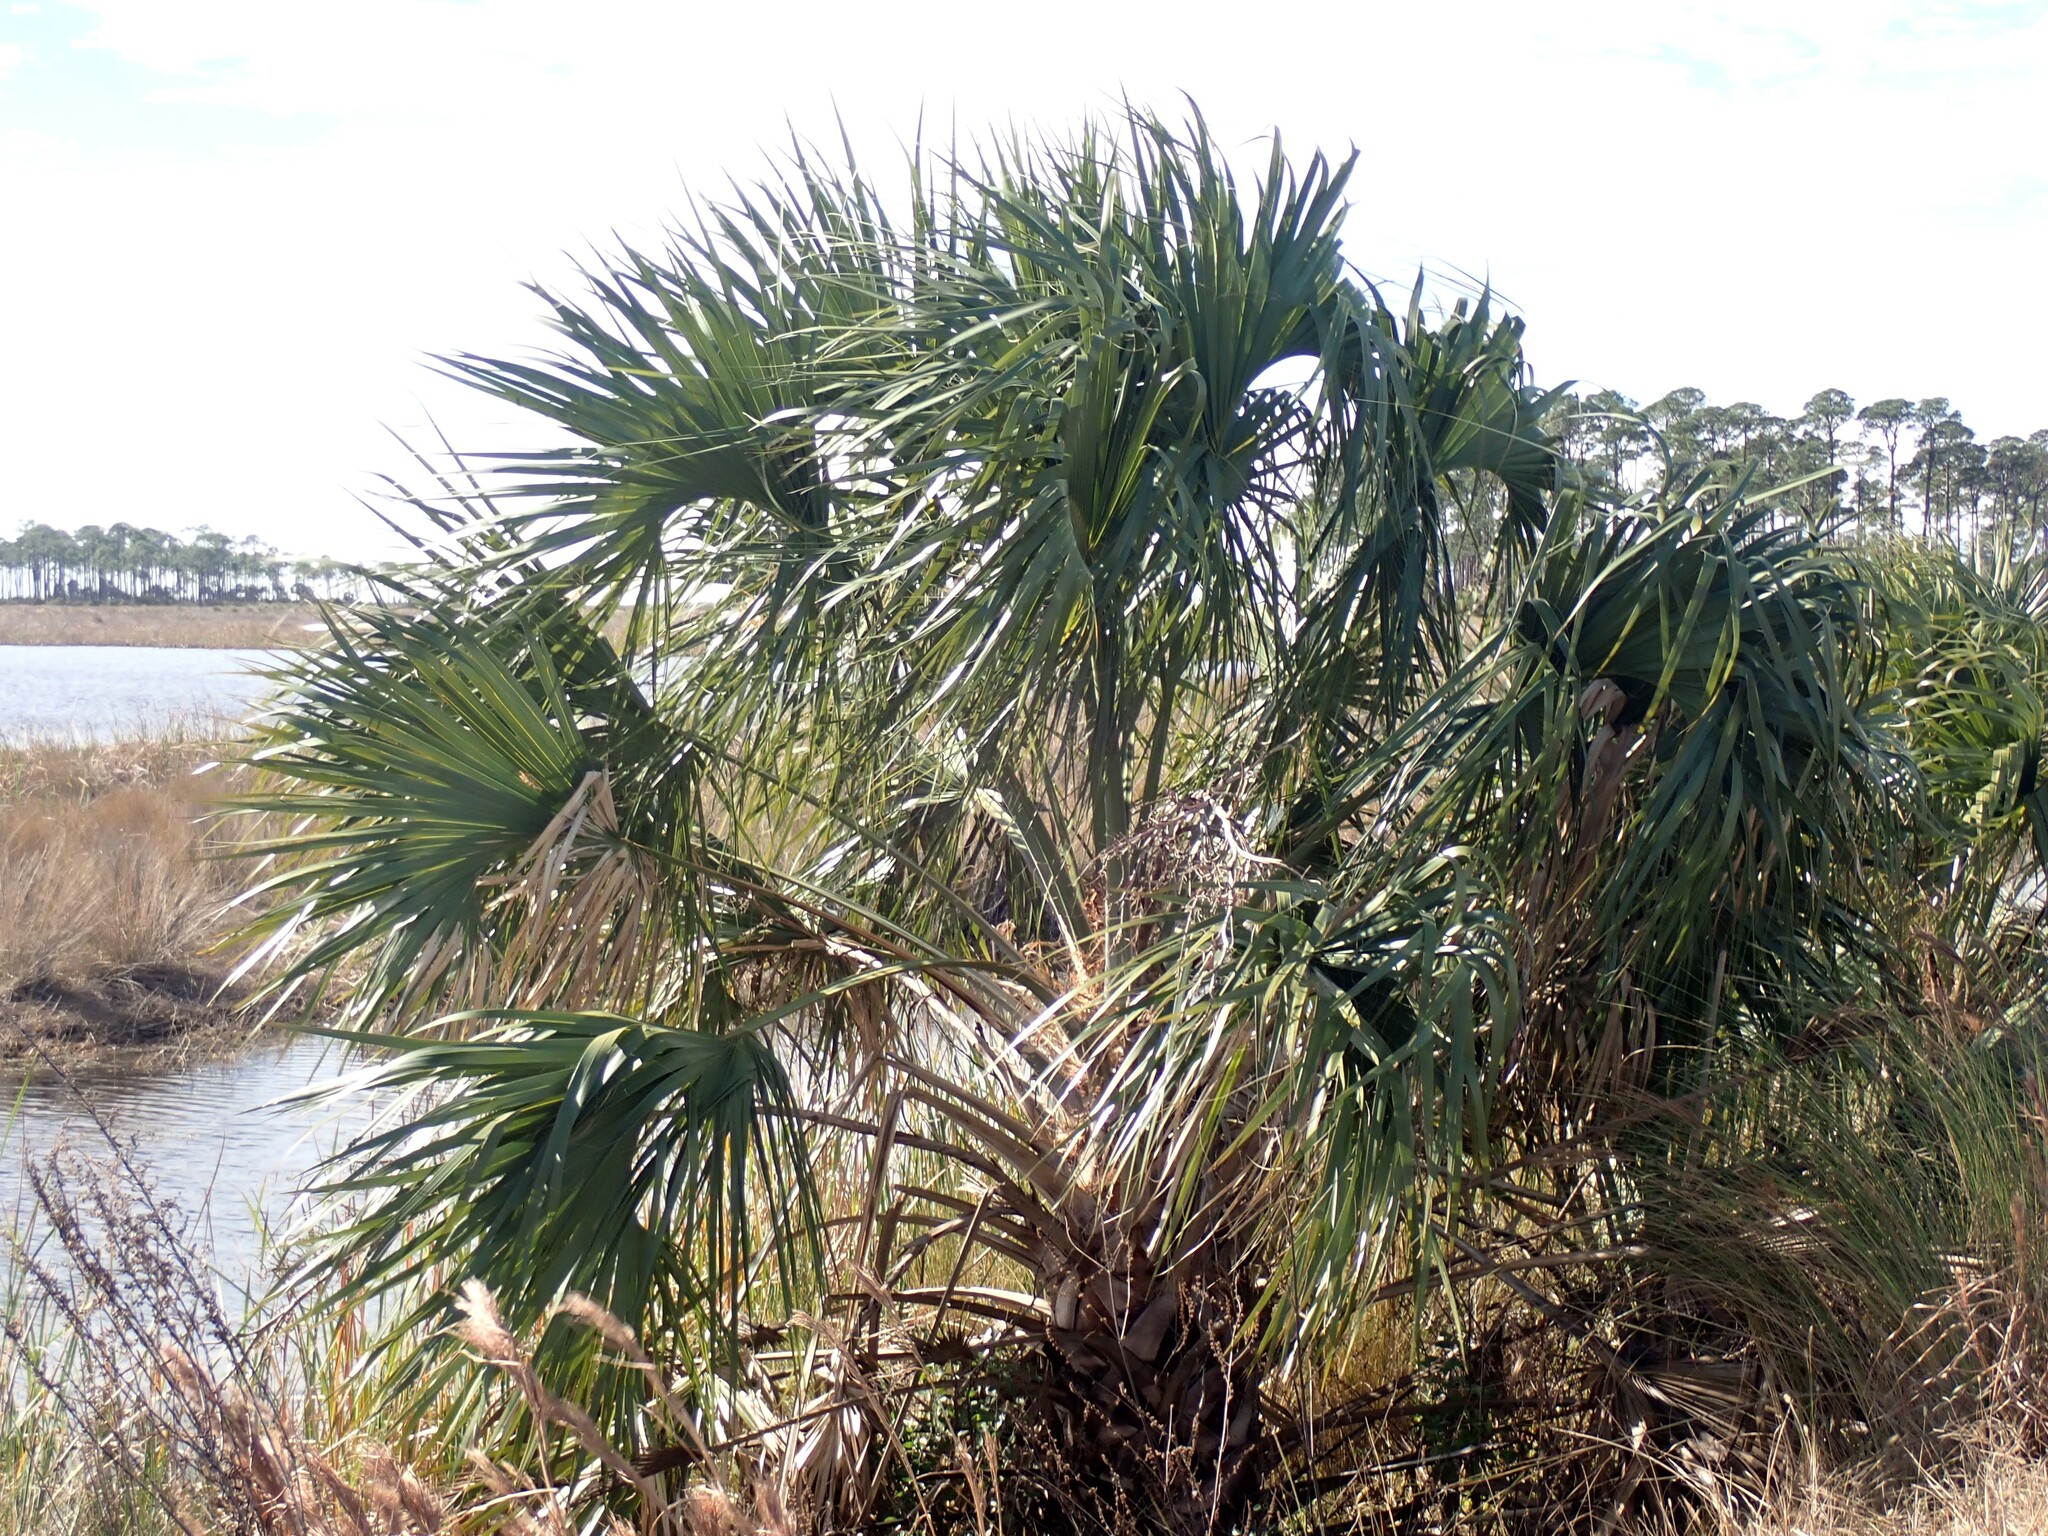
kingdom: Plantae
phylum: Tracheophyta
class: Liliopsida
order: Arecales
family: Arecaceae
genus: Sabal
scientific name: Sabal palmetto
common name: Blue palmetto
